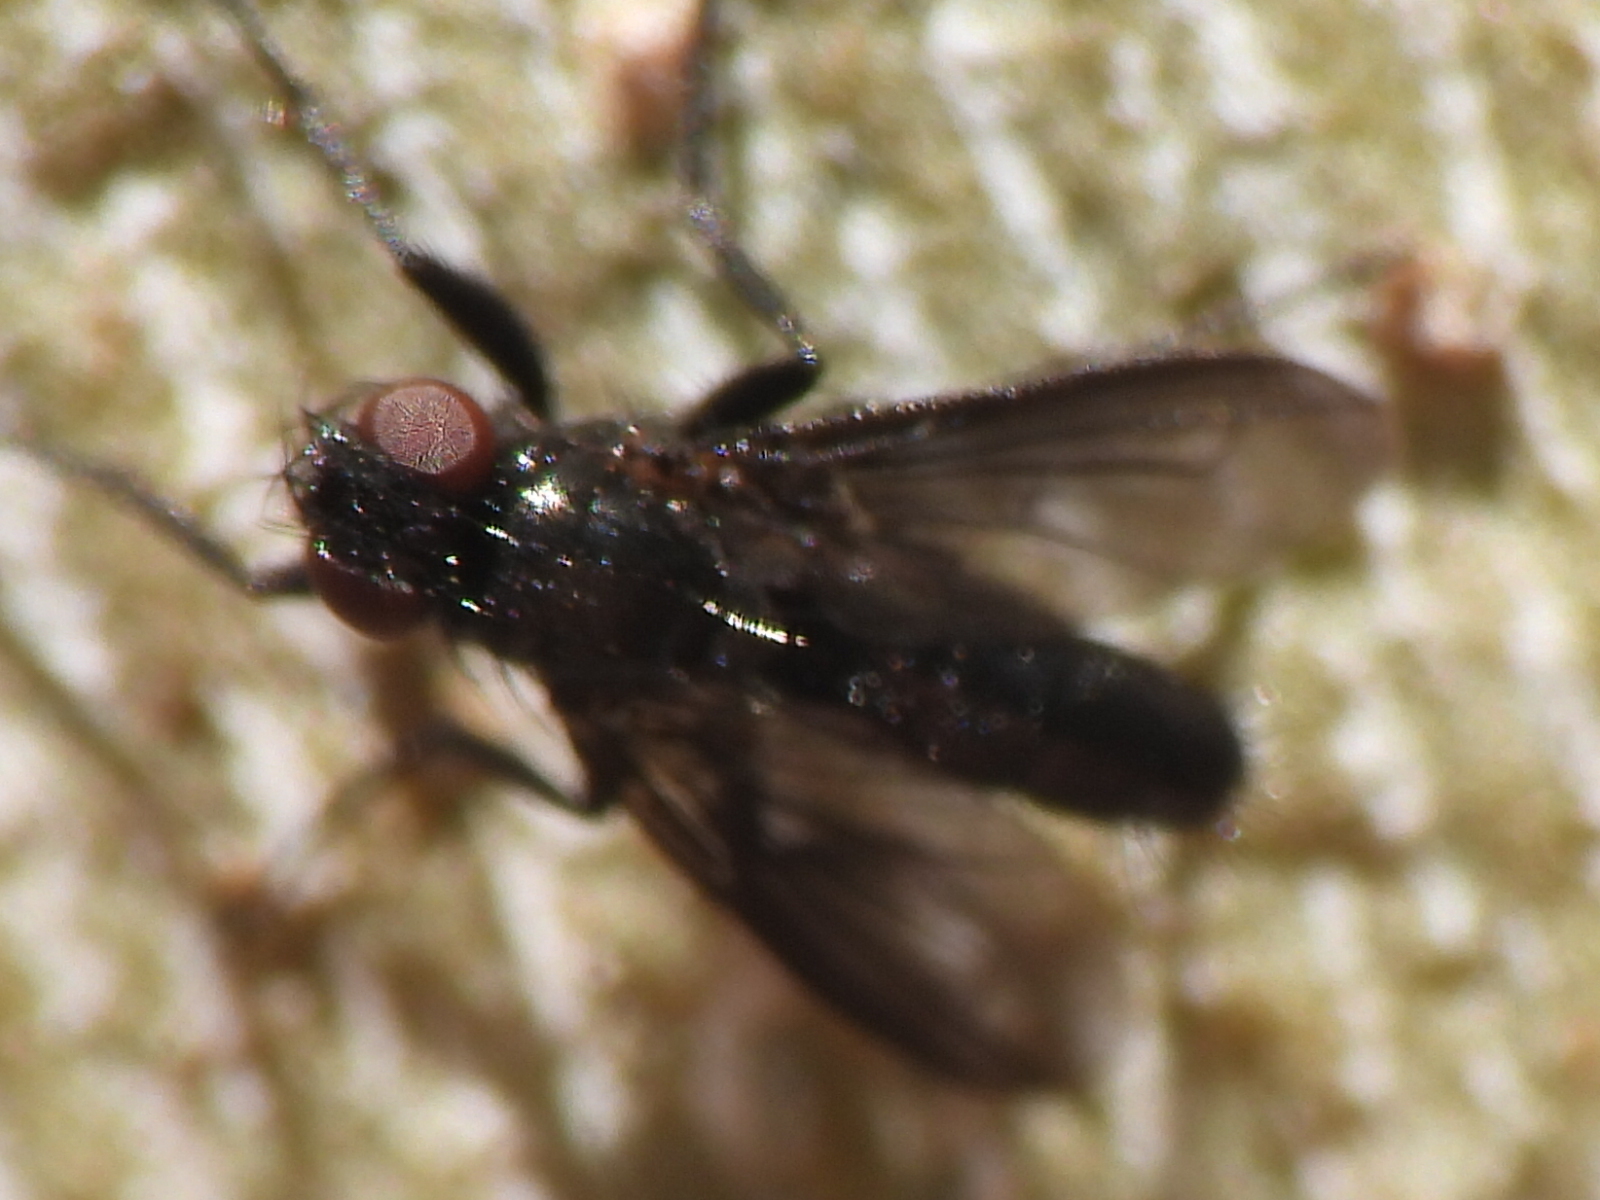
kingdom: Animalia
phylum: Arthropoda
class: Insecta
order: Diptera
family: Calliphoridae
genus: Melanophora
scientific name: Melanophora roralis
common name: Smoky-winged woodlouse-fly
